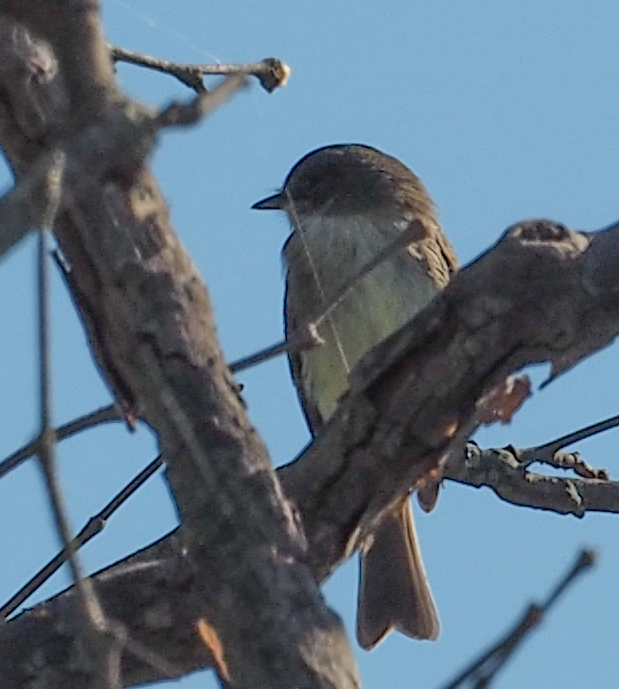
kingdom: Animalia
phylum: Chordata
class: Aves
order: Passeriformes
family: Tyrannidae
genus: Sayornis
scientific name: Sayornis phoebe
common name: Eastern phoebe
